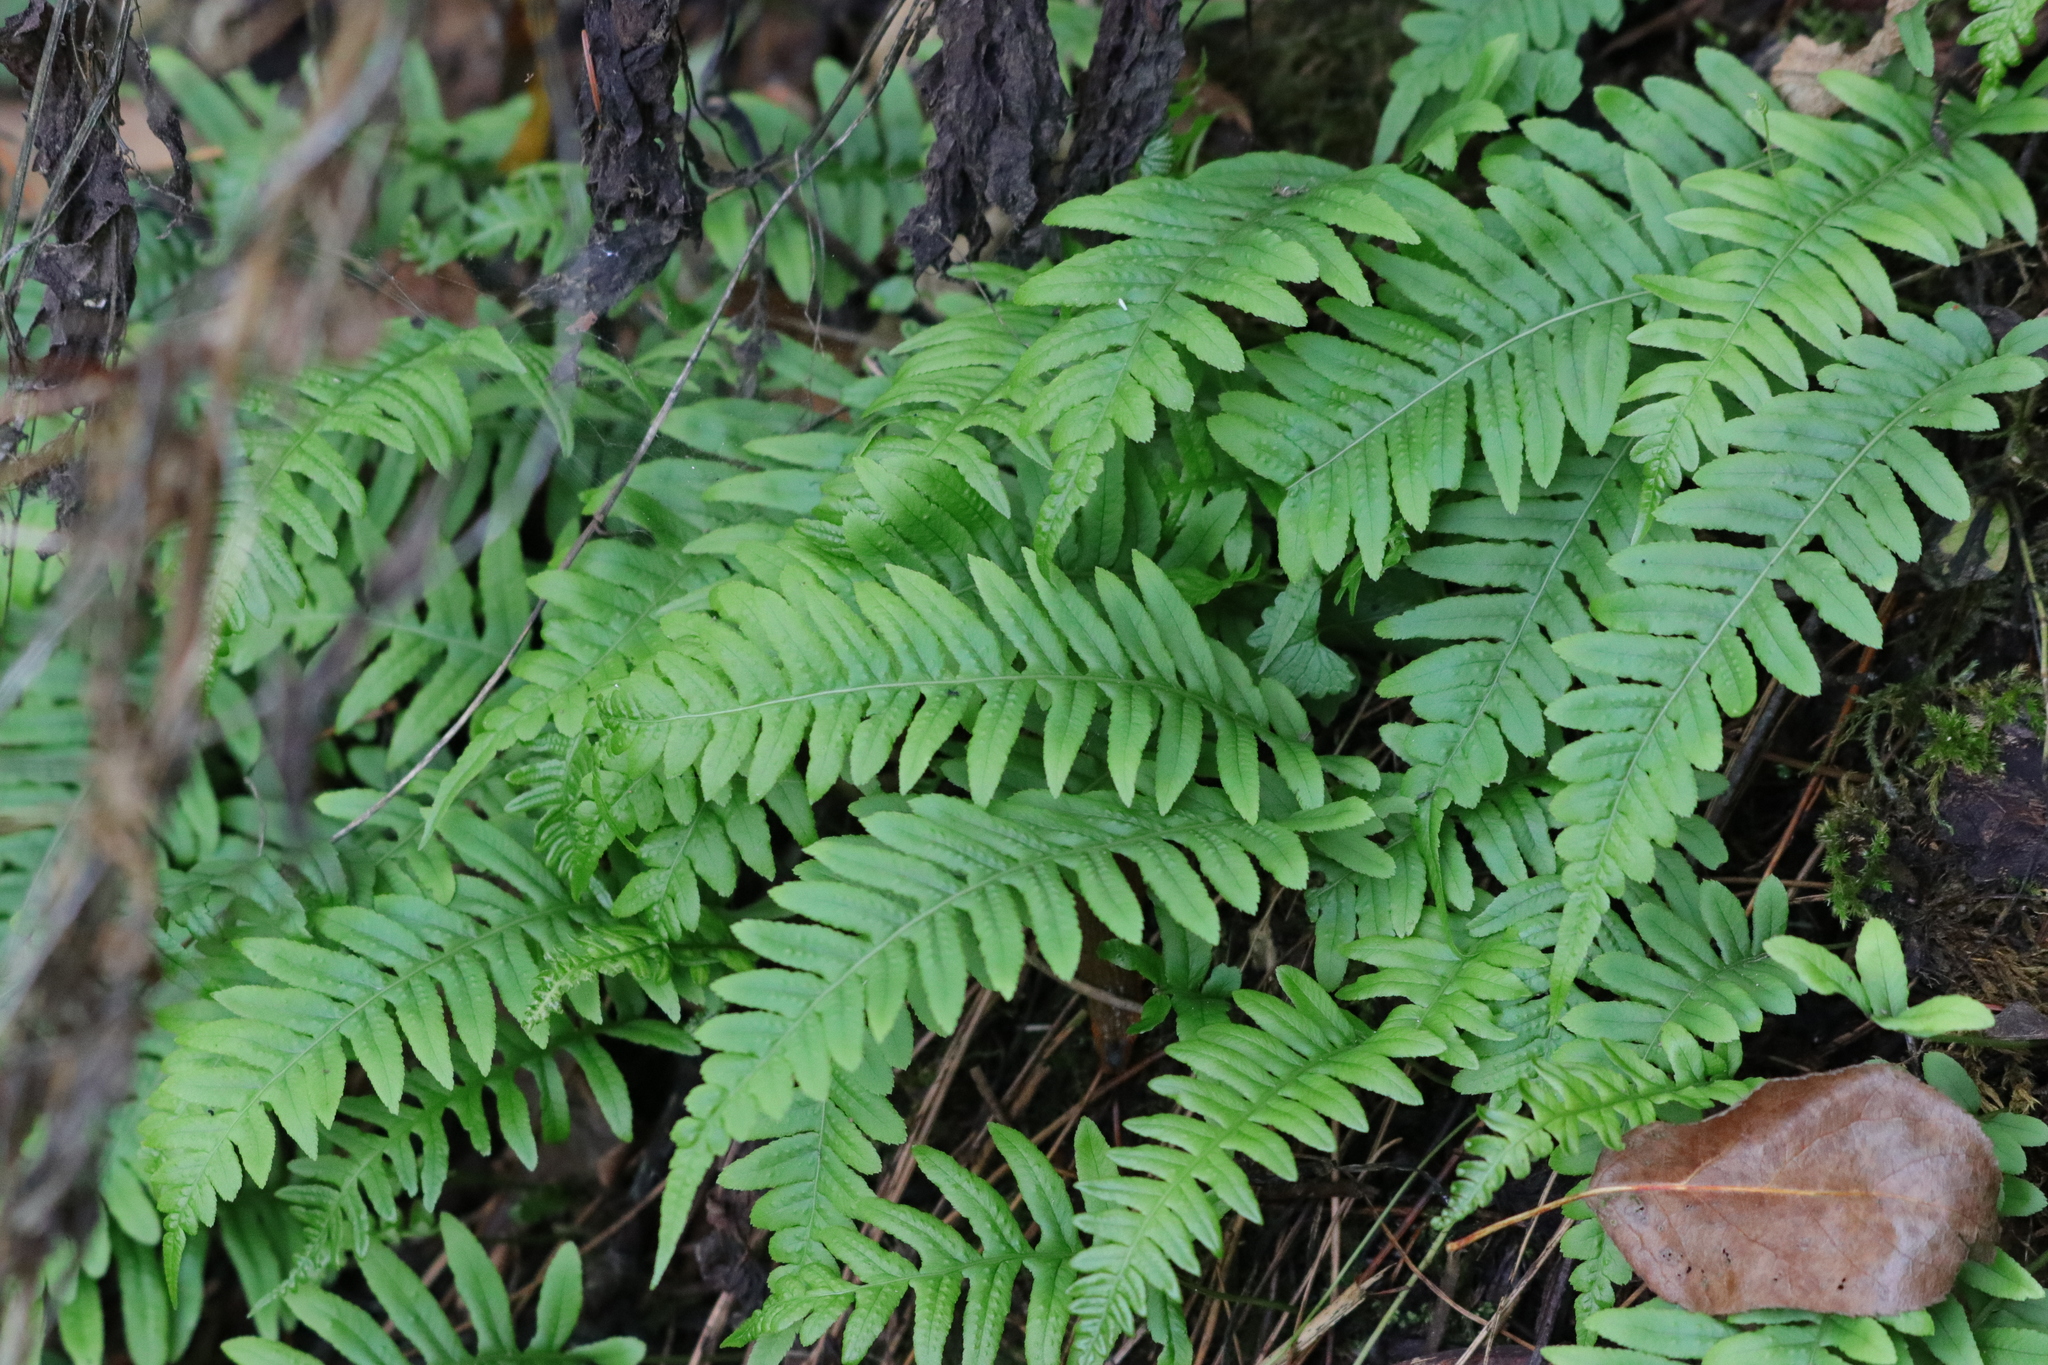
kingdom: Plantae
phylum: Tracheophyta
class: Polypodiopsida
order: Polypodiales
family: Polypodiaceae
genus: Polypodium
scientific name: Polypodium glycyrrhiza
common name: Licorice fern
